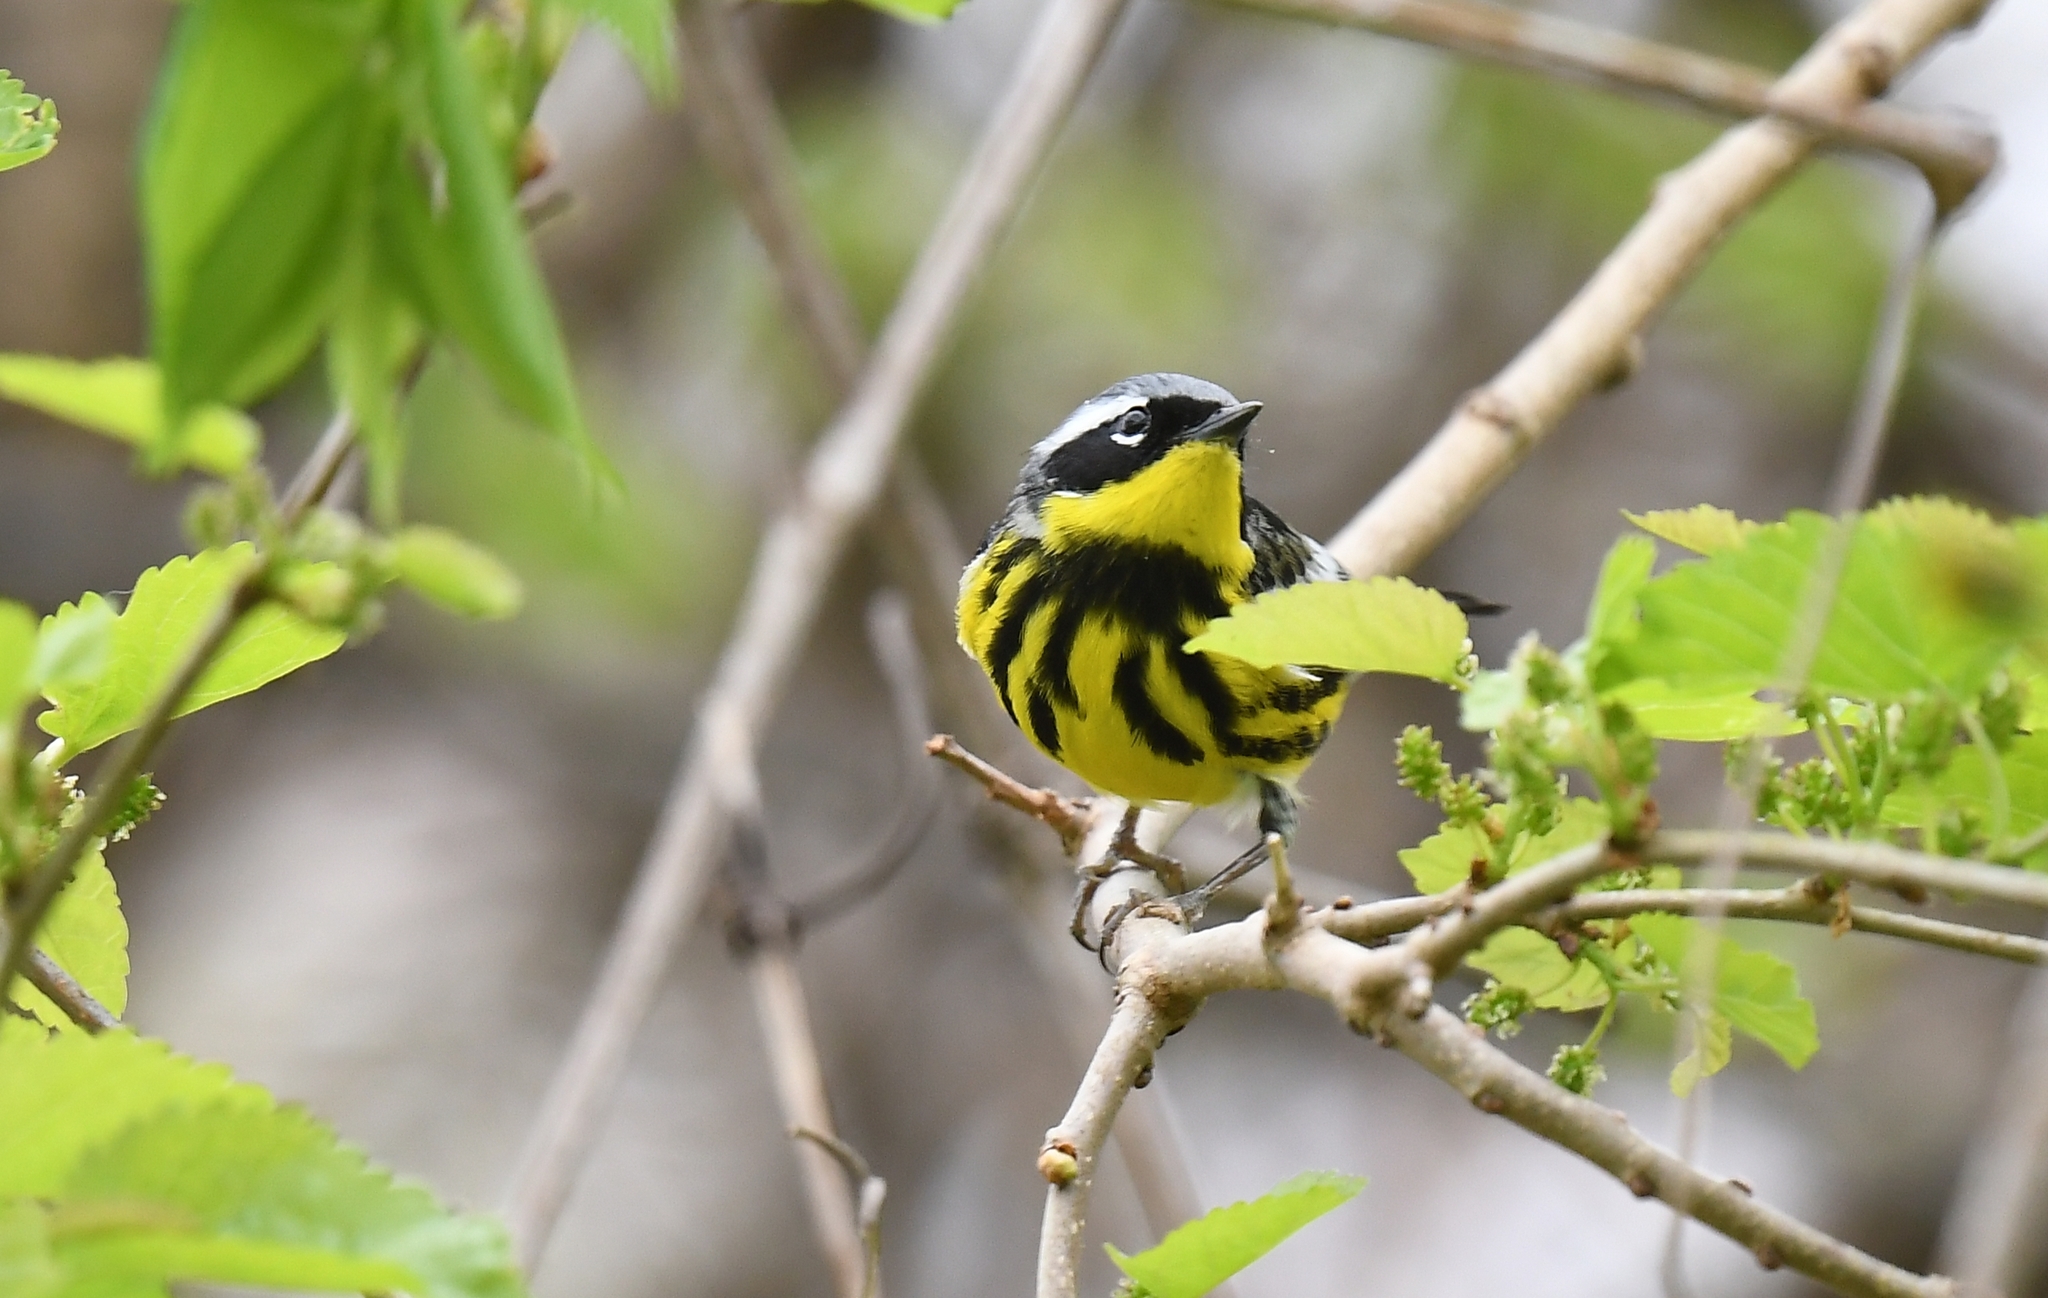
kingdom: Animalia
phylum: Chordata
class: Aves
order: Passeriformes
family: Parulidae
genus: Setophaga
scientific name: Setophaga magnolia
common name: Magnolia warbler
